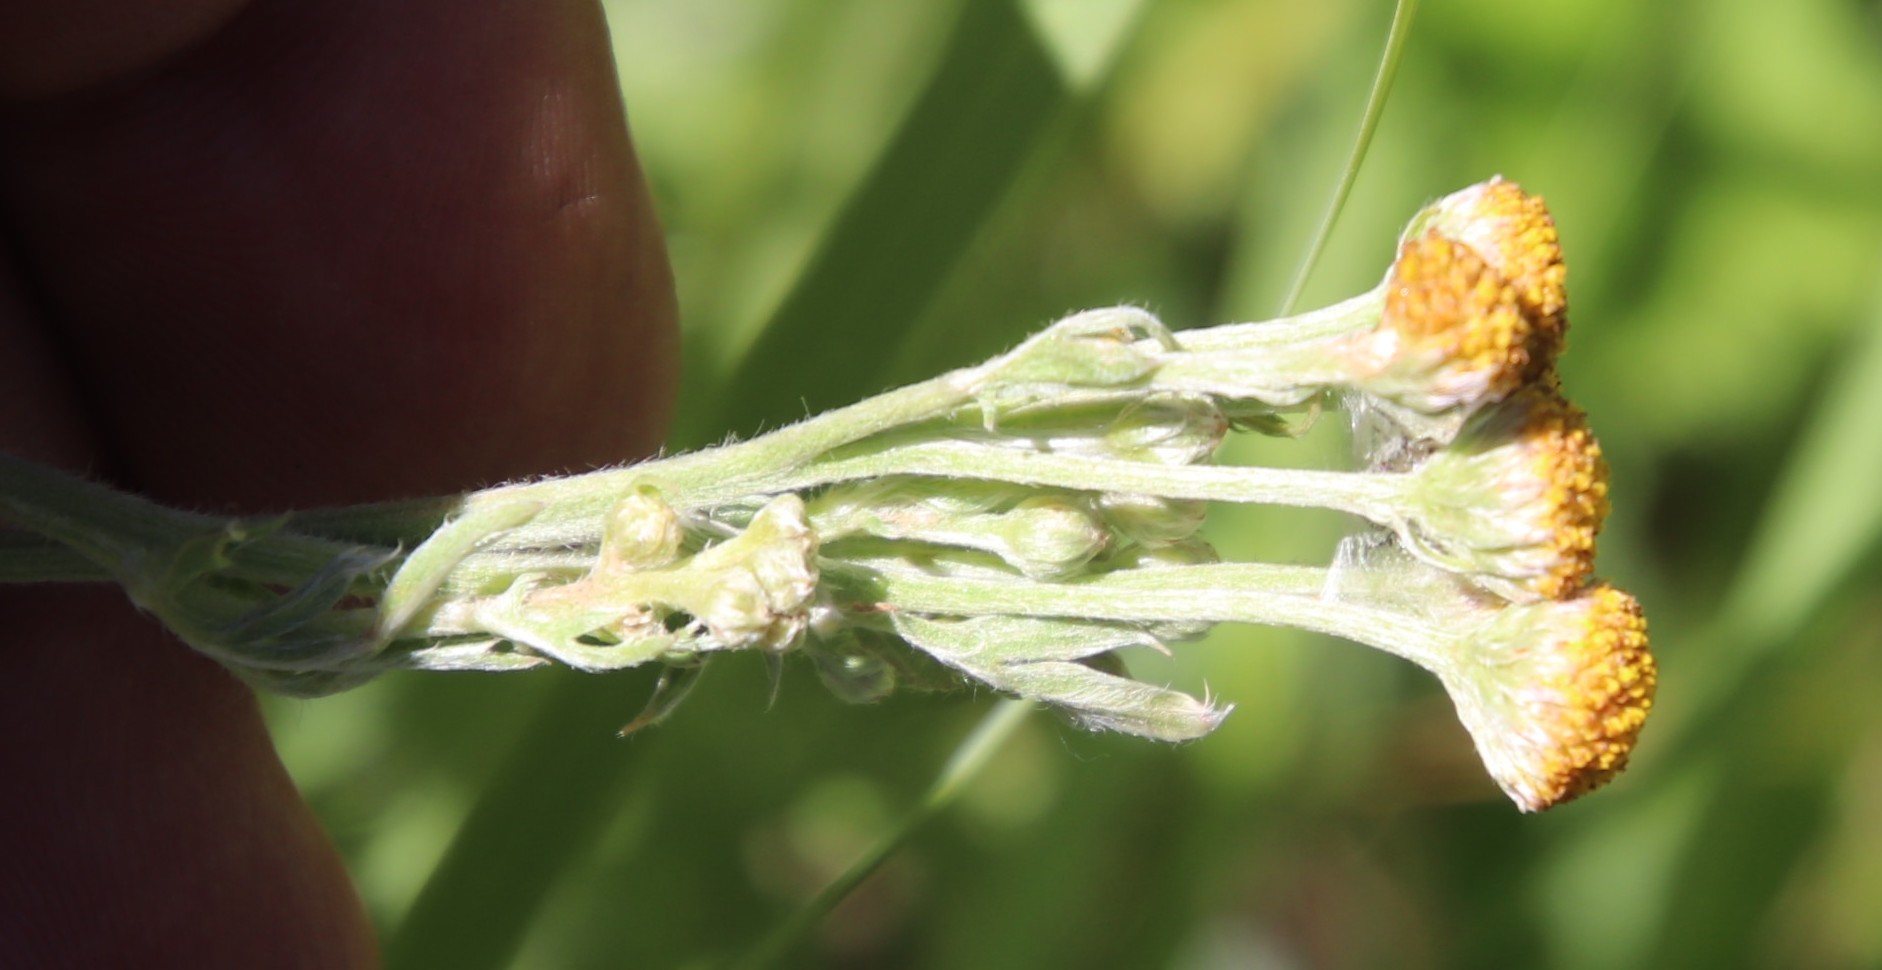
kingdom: Plantae
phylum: Tracheophyta
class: Magnoliopsida
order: Asterales
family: Asteraceae
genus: Schistostephium
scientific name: Schistostephium crataegifolium
